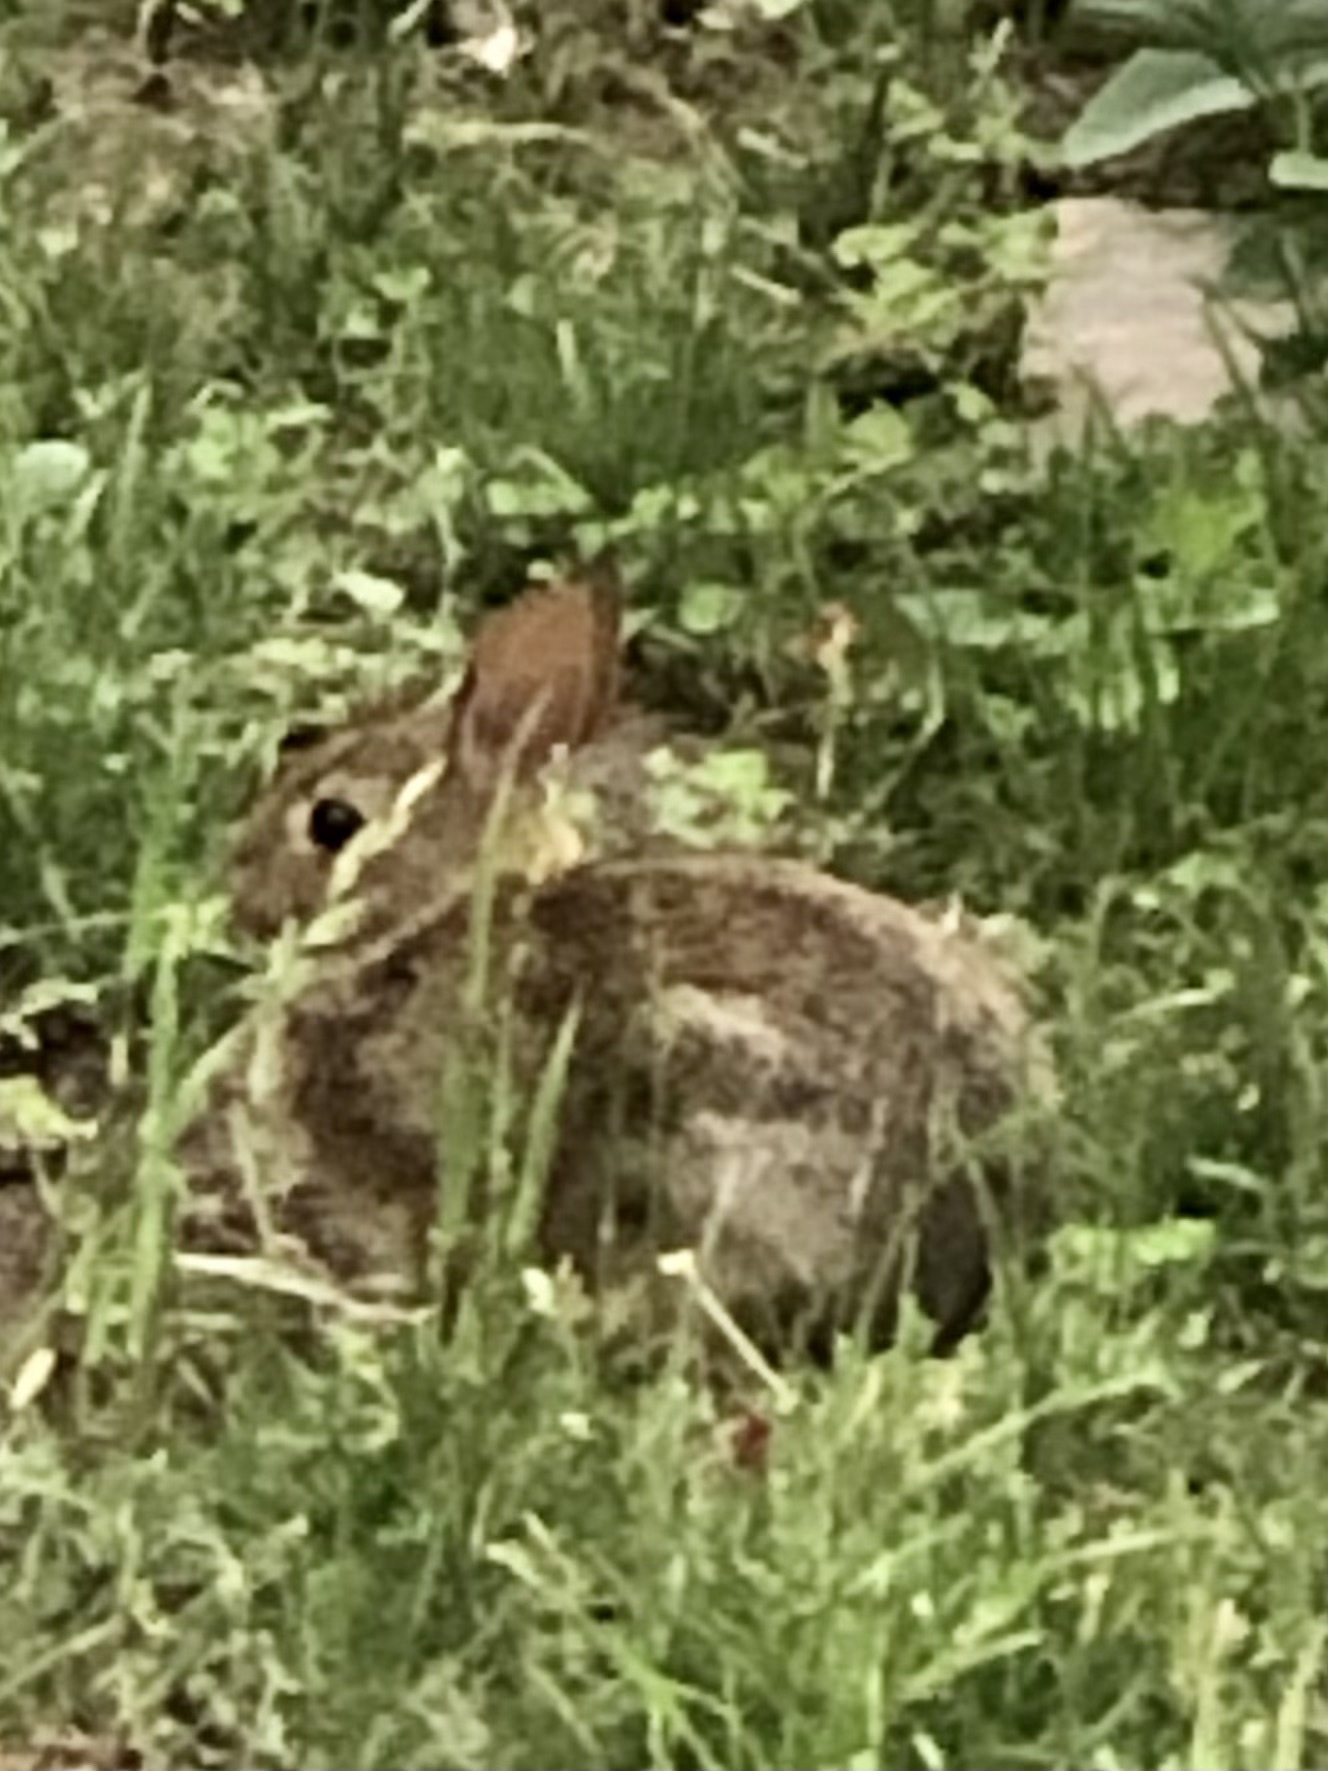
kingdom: Animalia
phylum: Chordata
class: Mammalia
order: Lagomorpha
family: Leporidae
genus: Sylvilagus
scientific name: Sylvilagus floridanus
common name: Eastern cottontail
